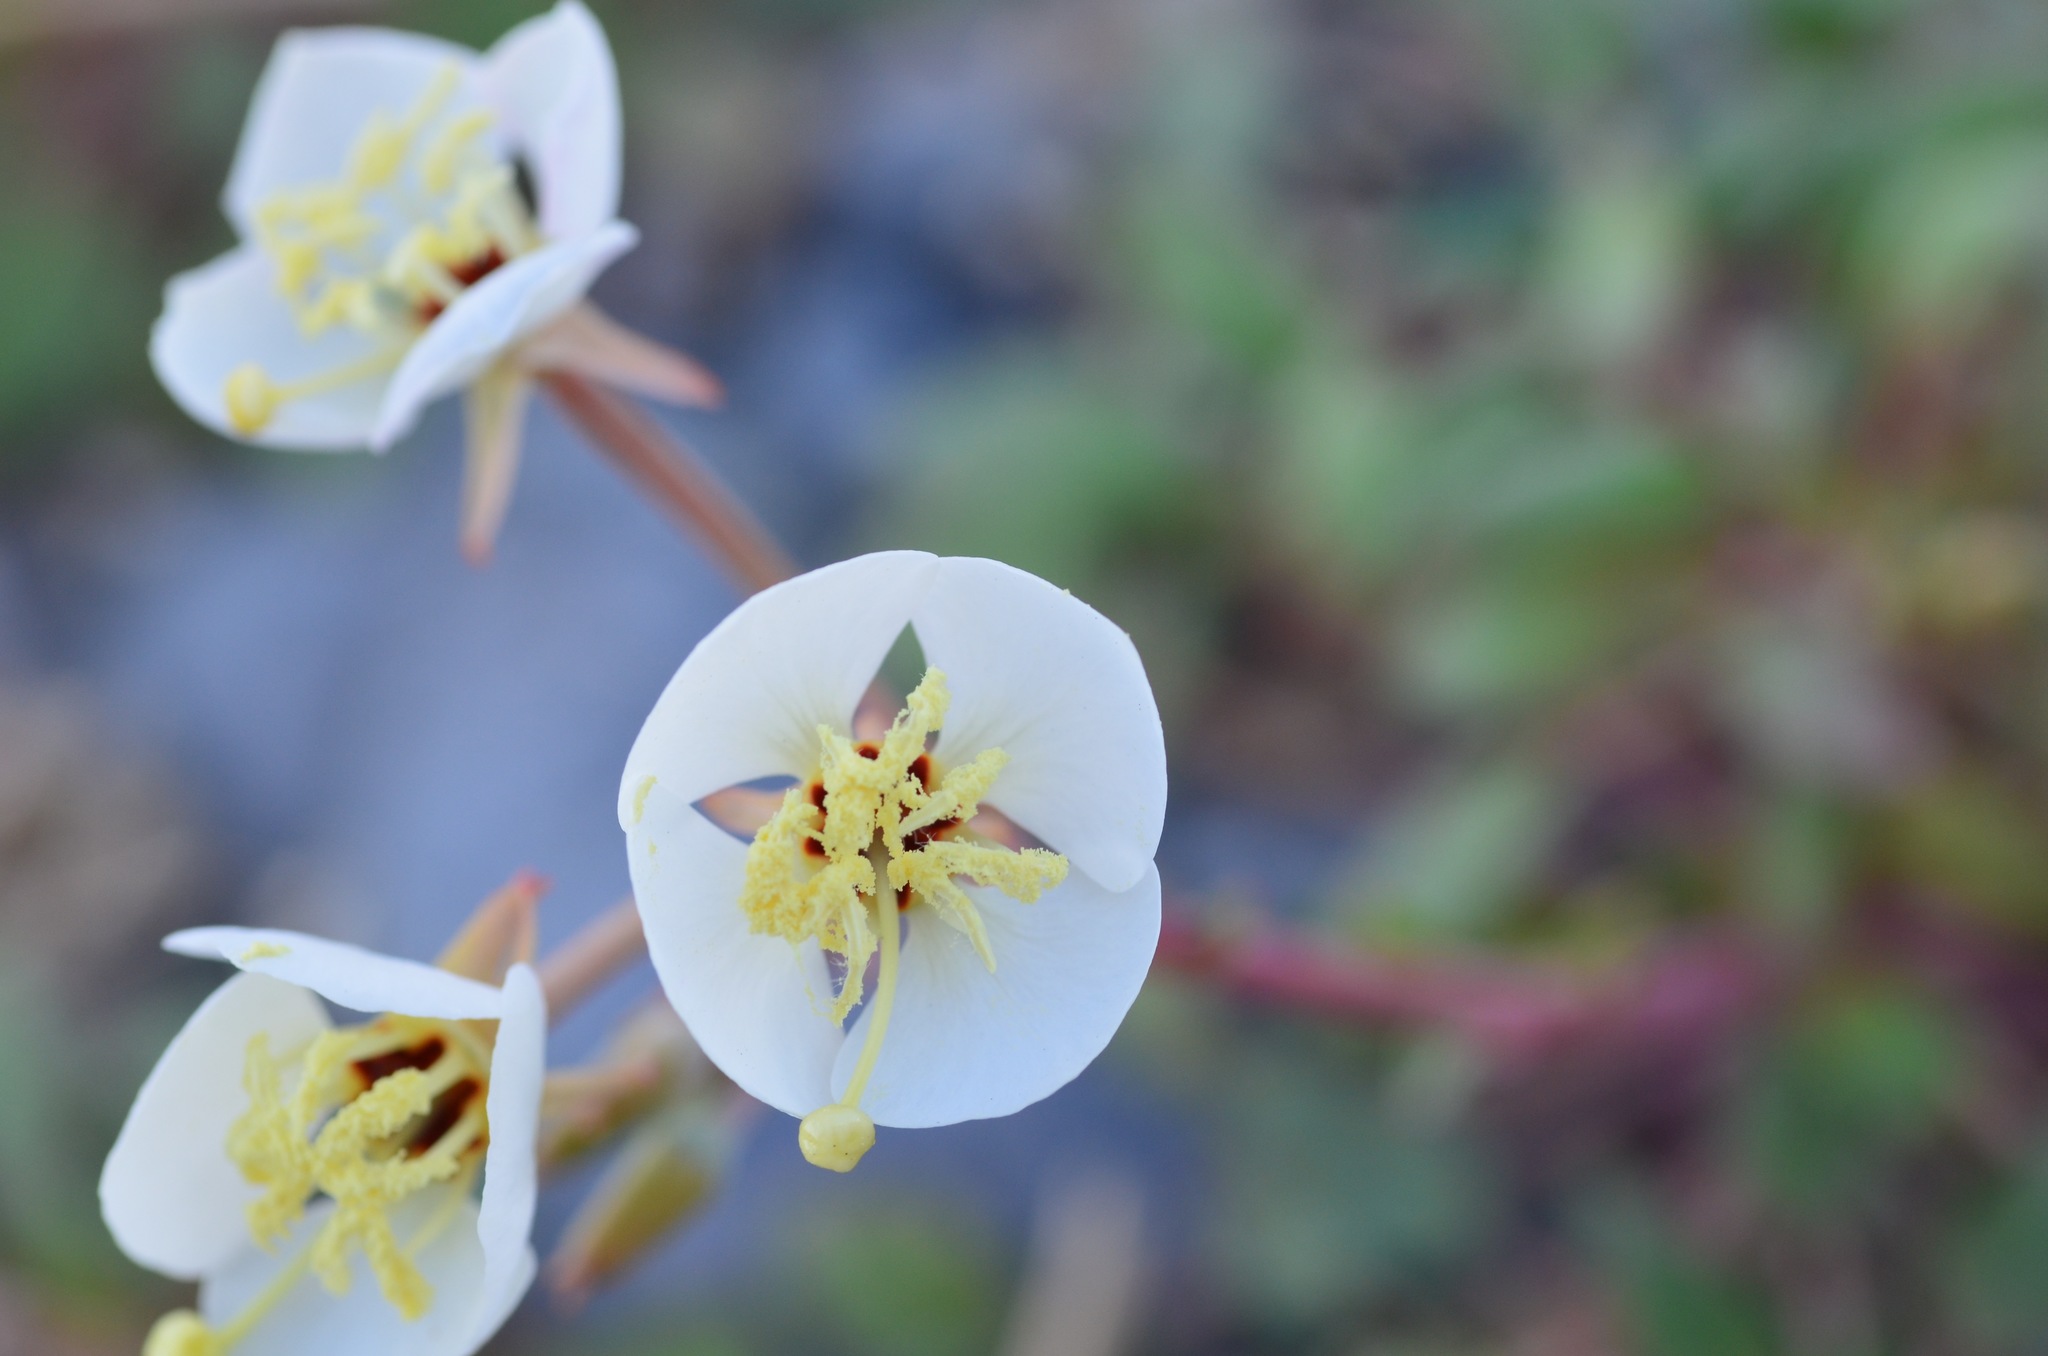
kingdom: Plantae
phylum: Tracheophyta
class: Magnoliopsida
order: Myrtales
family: Onagraceae
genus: Chylismia
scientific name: Chylismia claviformis
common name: Browneyes
